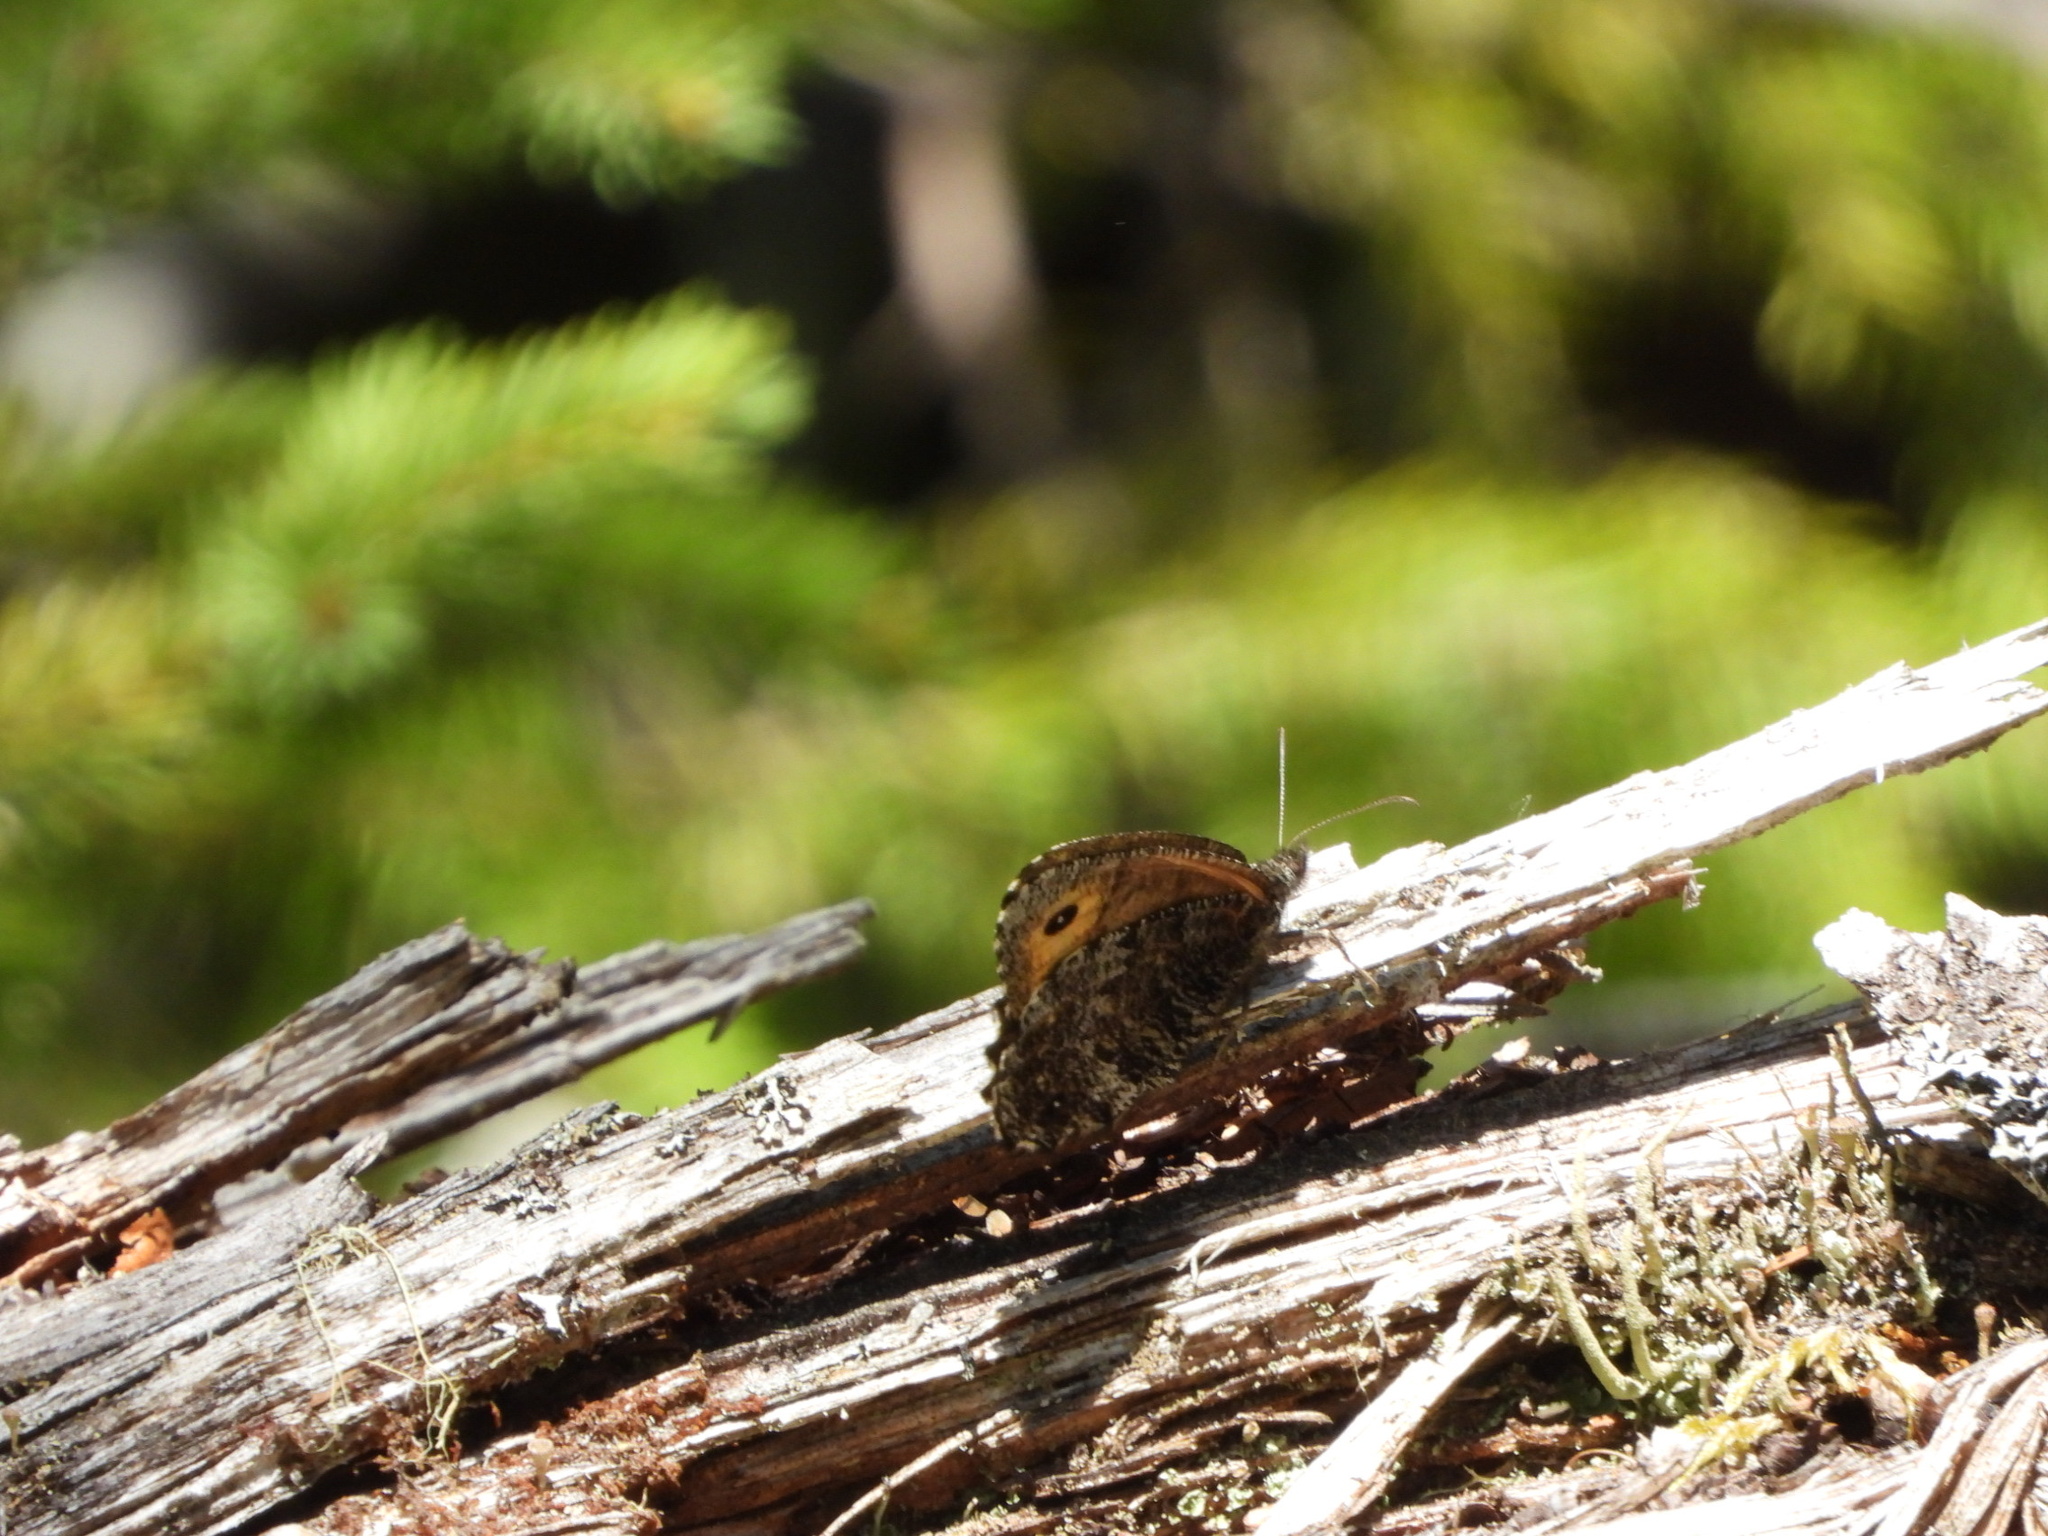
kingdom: Animalia
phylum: Arthropoda
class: Insecta
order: Lepidoptera
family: Nymphalidae
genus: Oeneis
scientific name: Oeneis jutta
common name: Baltic grayling
